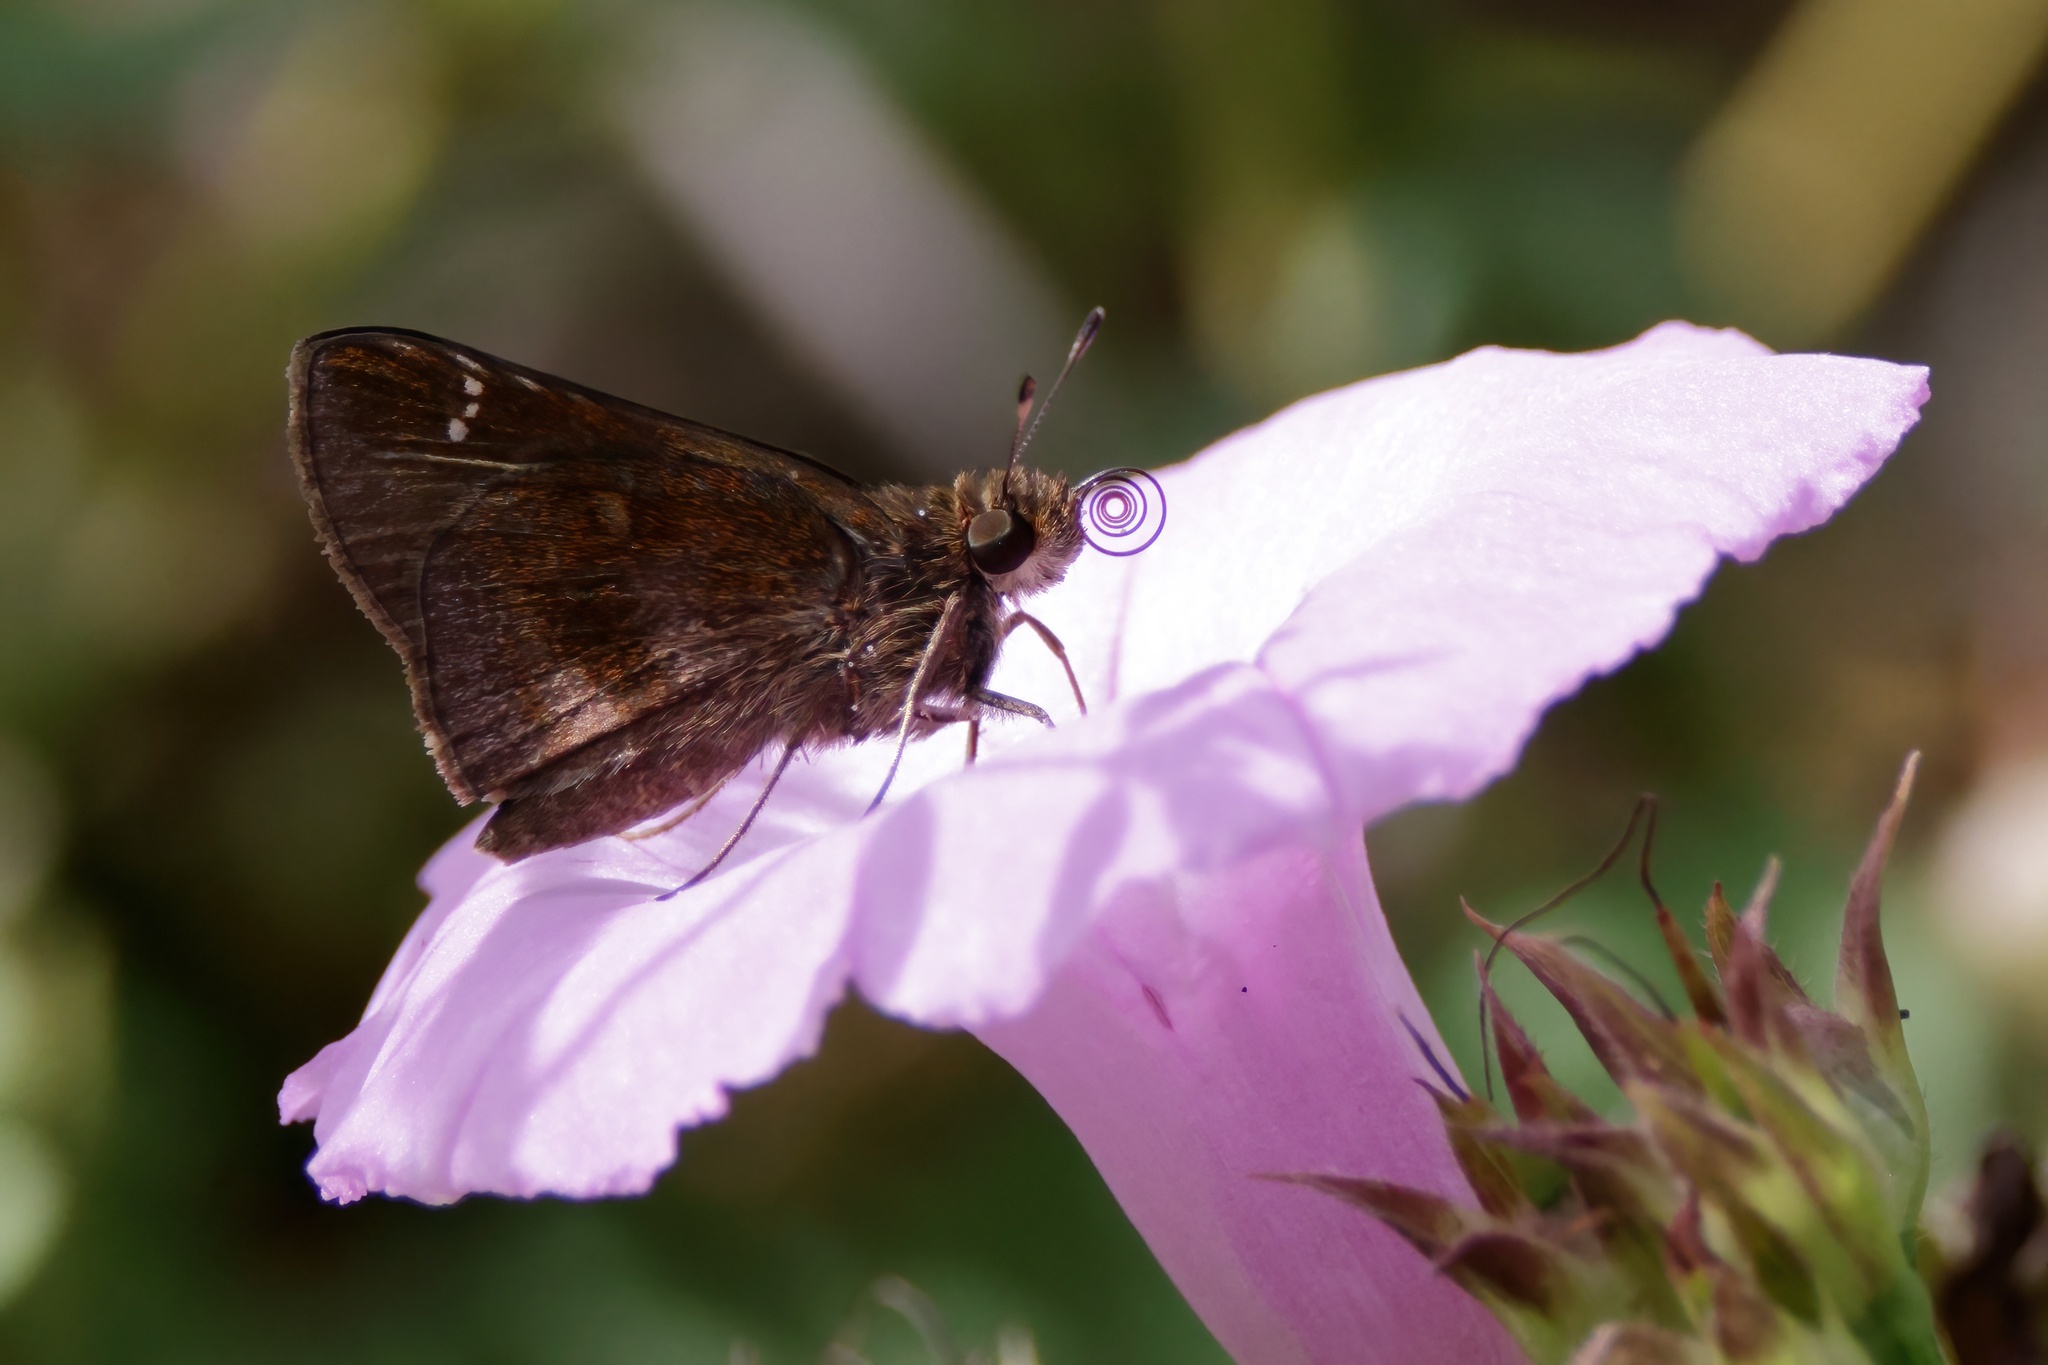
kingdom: Animalia
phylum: Arthropoda
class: Insecta
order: Lepidoptera
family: Hesperiidae
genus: Lerema
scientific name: Lerema accius
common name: Clouded skipper
